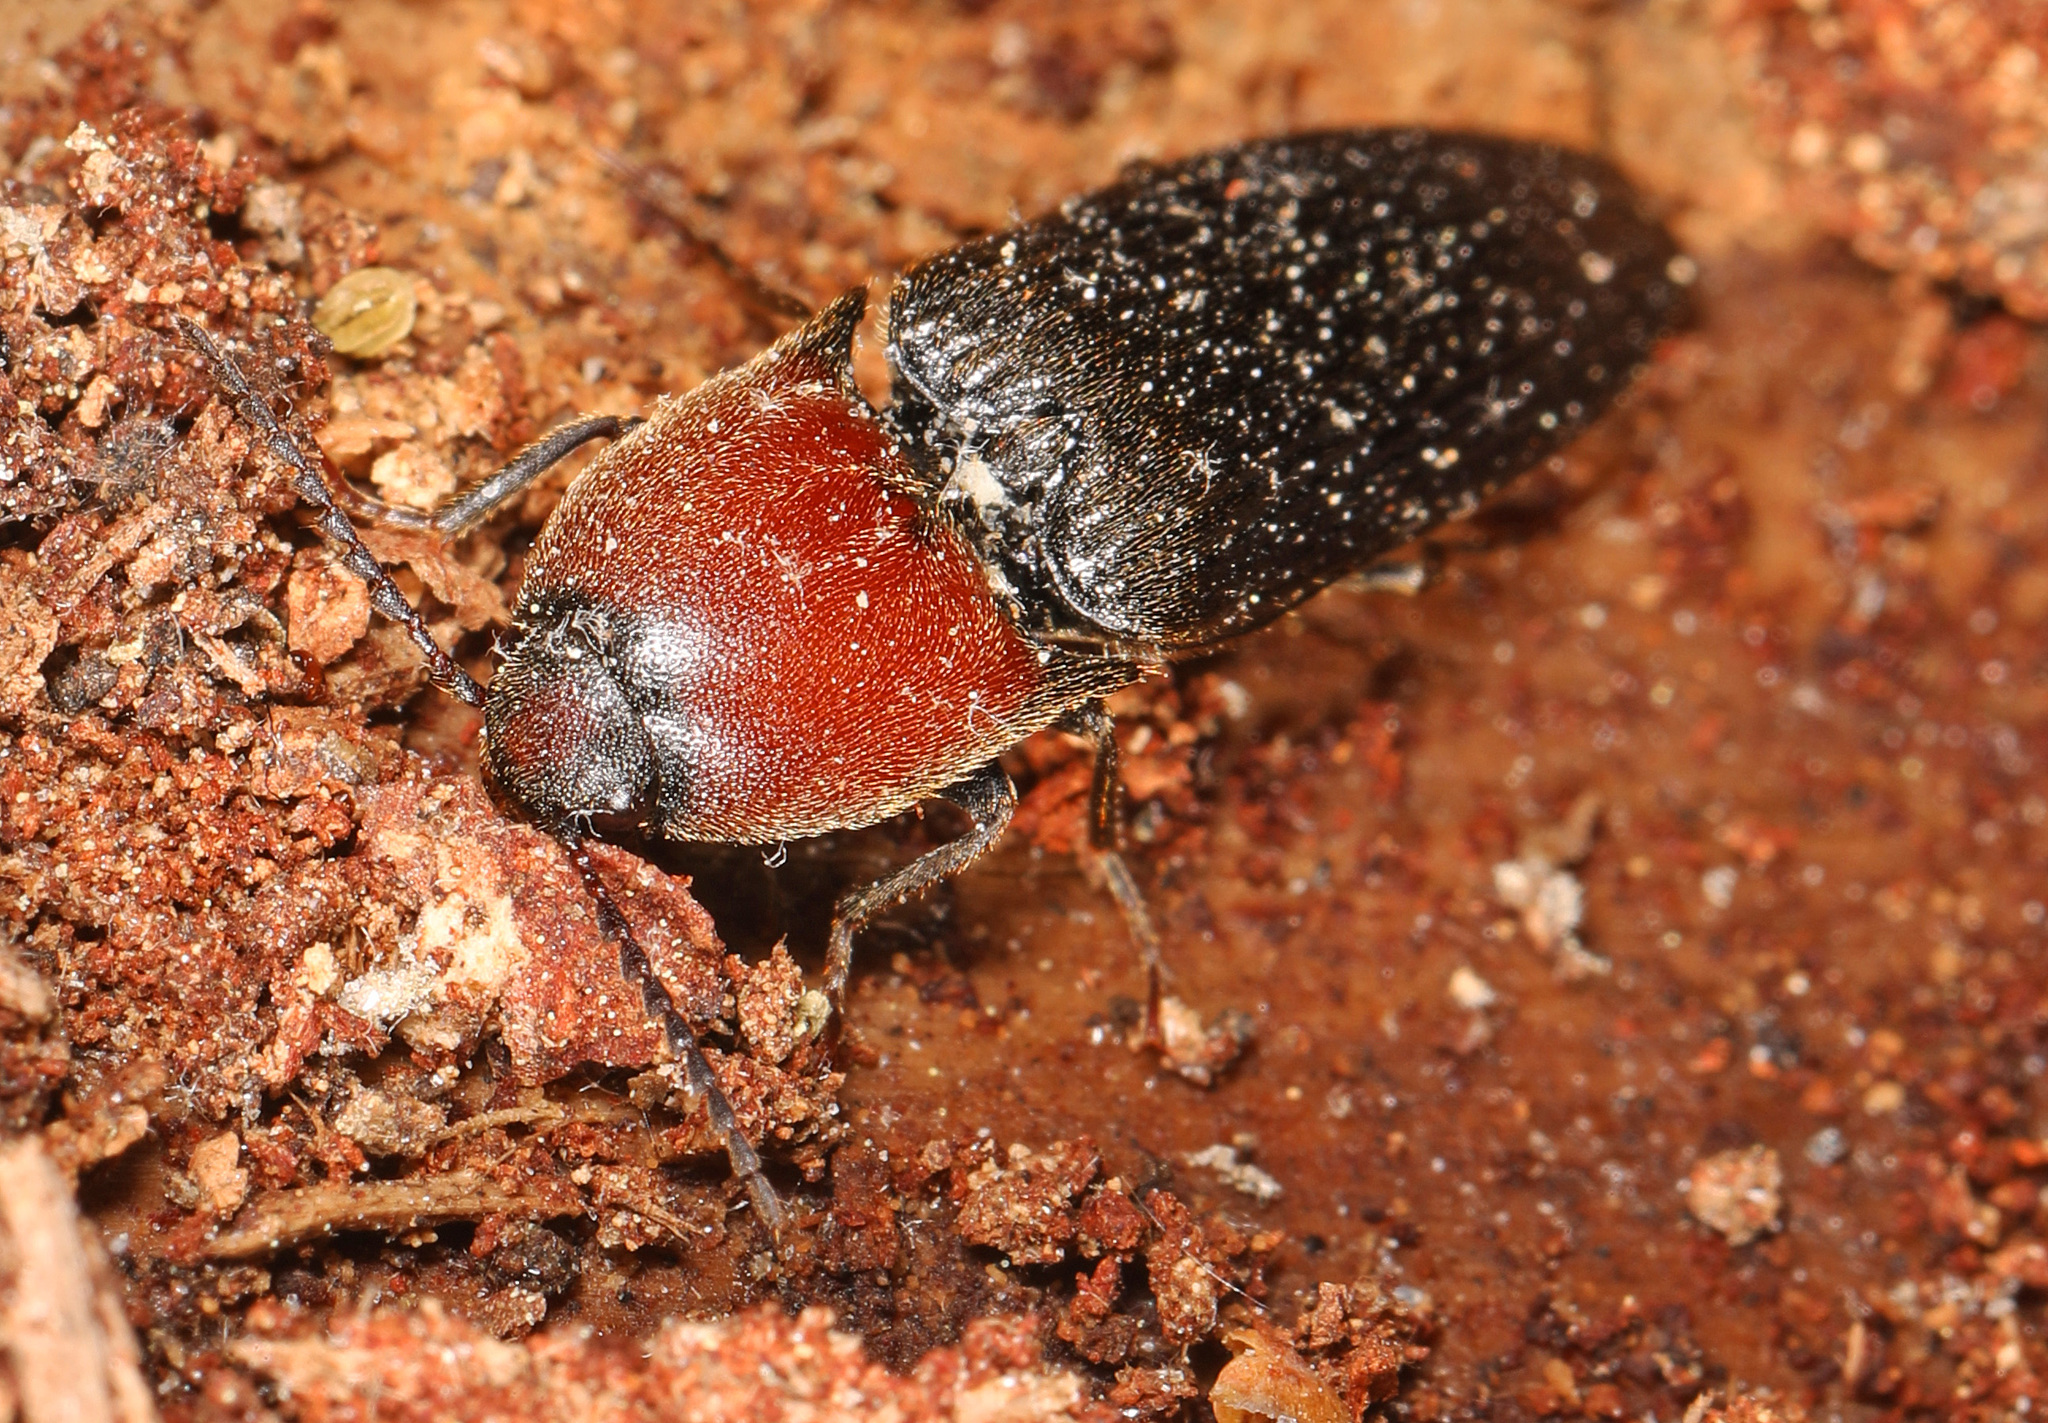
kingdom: Animalia
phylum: Arthropoda
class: Insecta
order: Coleoptera
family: Elateridae
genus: Ampedus
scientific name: Ampedus rubricollis
